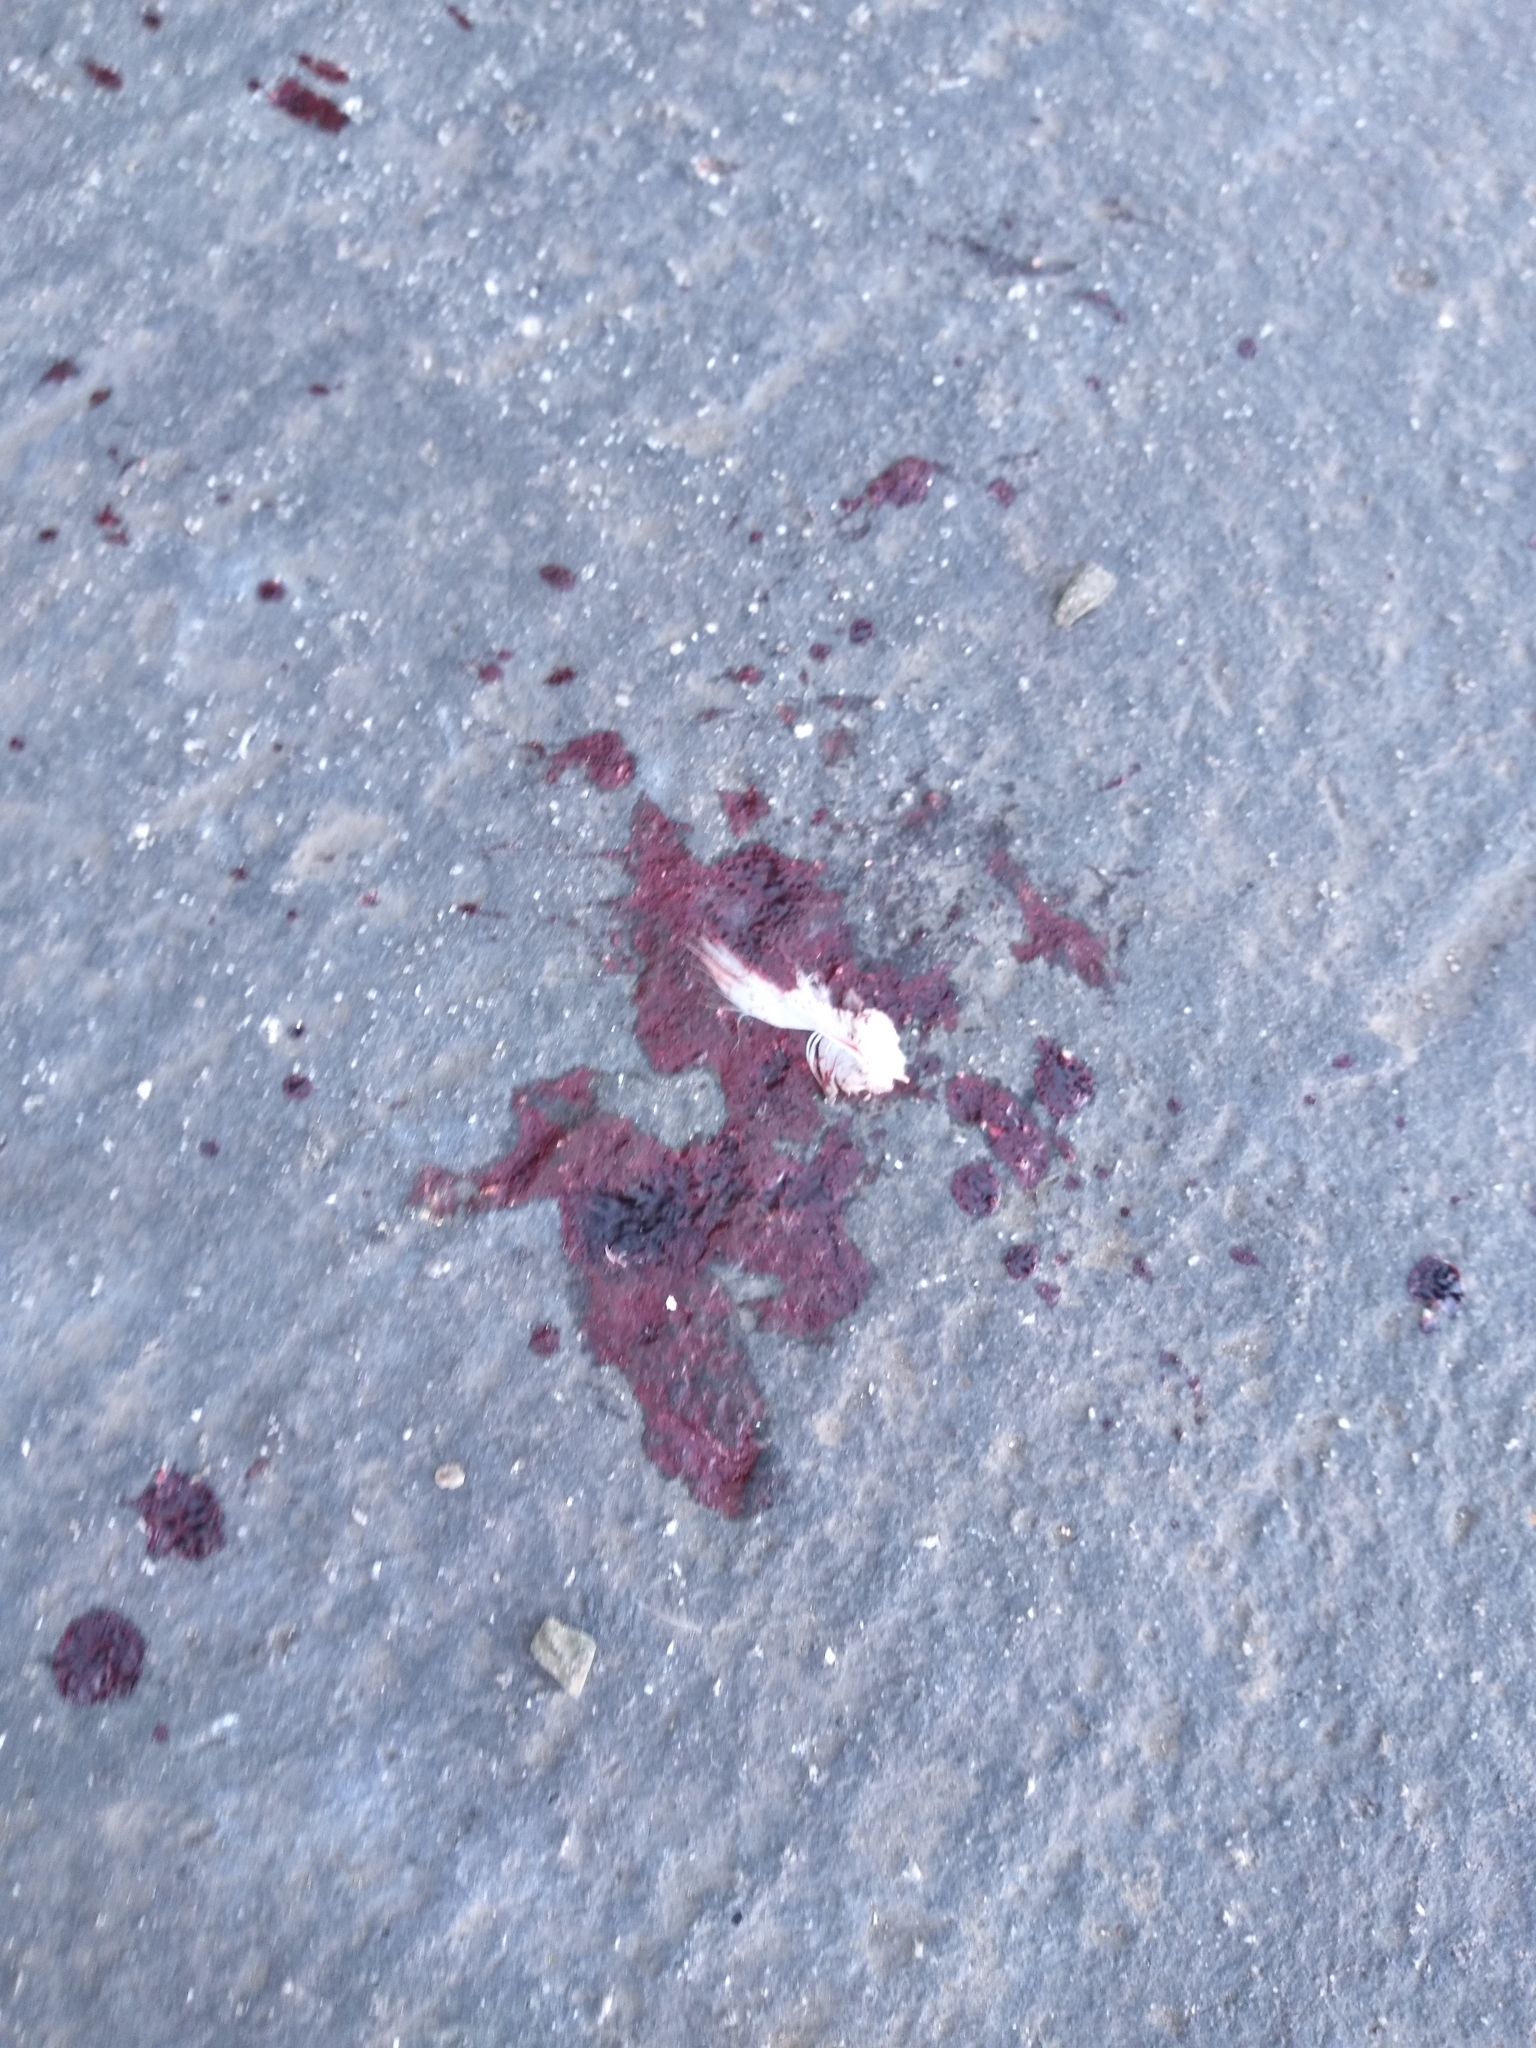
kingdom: Animalia
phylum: Chordata
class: Aves
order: Columbiformes
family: Columbidae
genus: Columba
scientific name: Columba livia
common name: Rock pigeon
